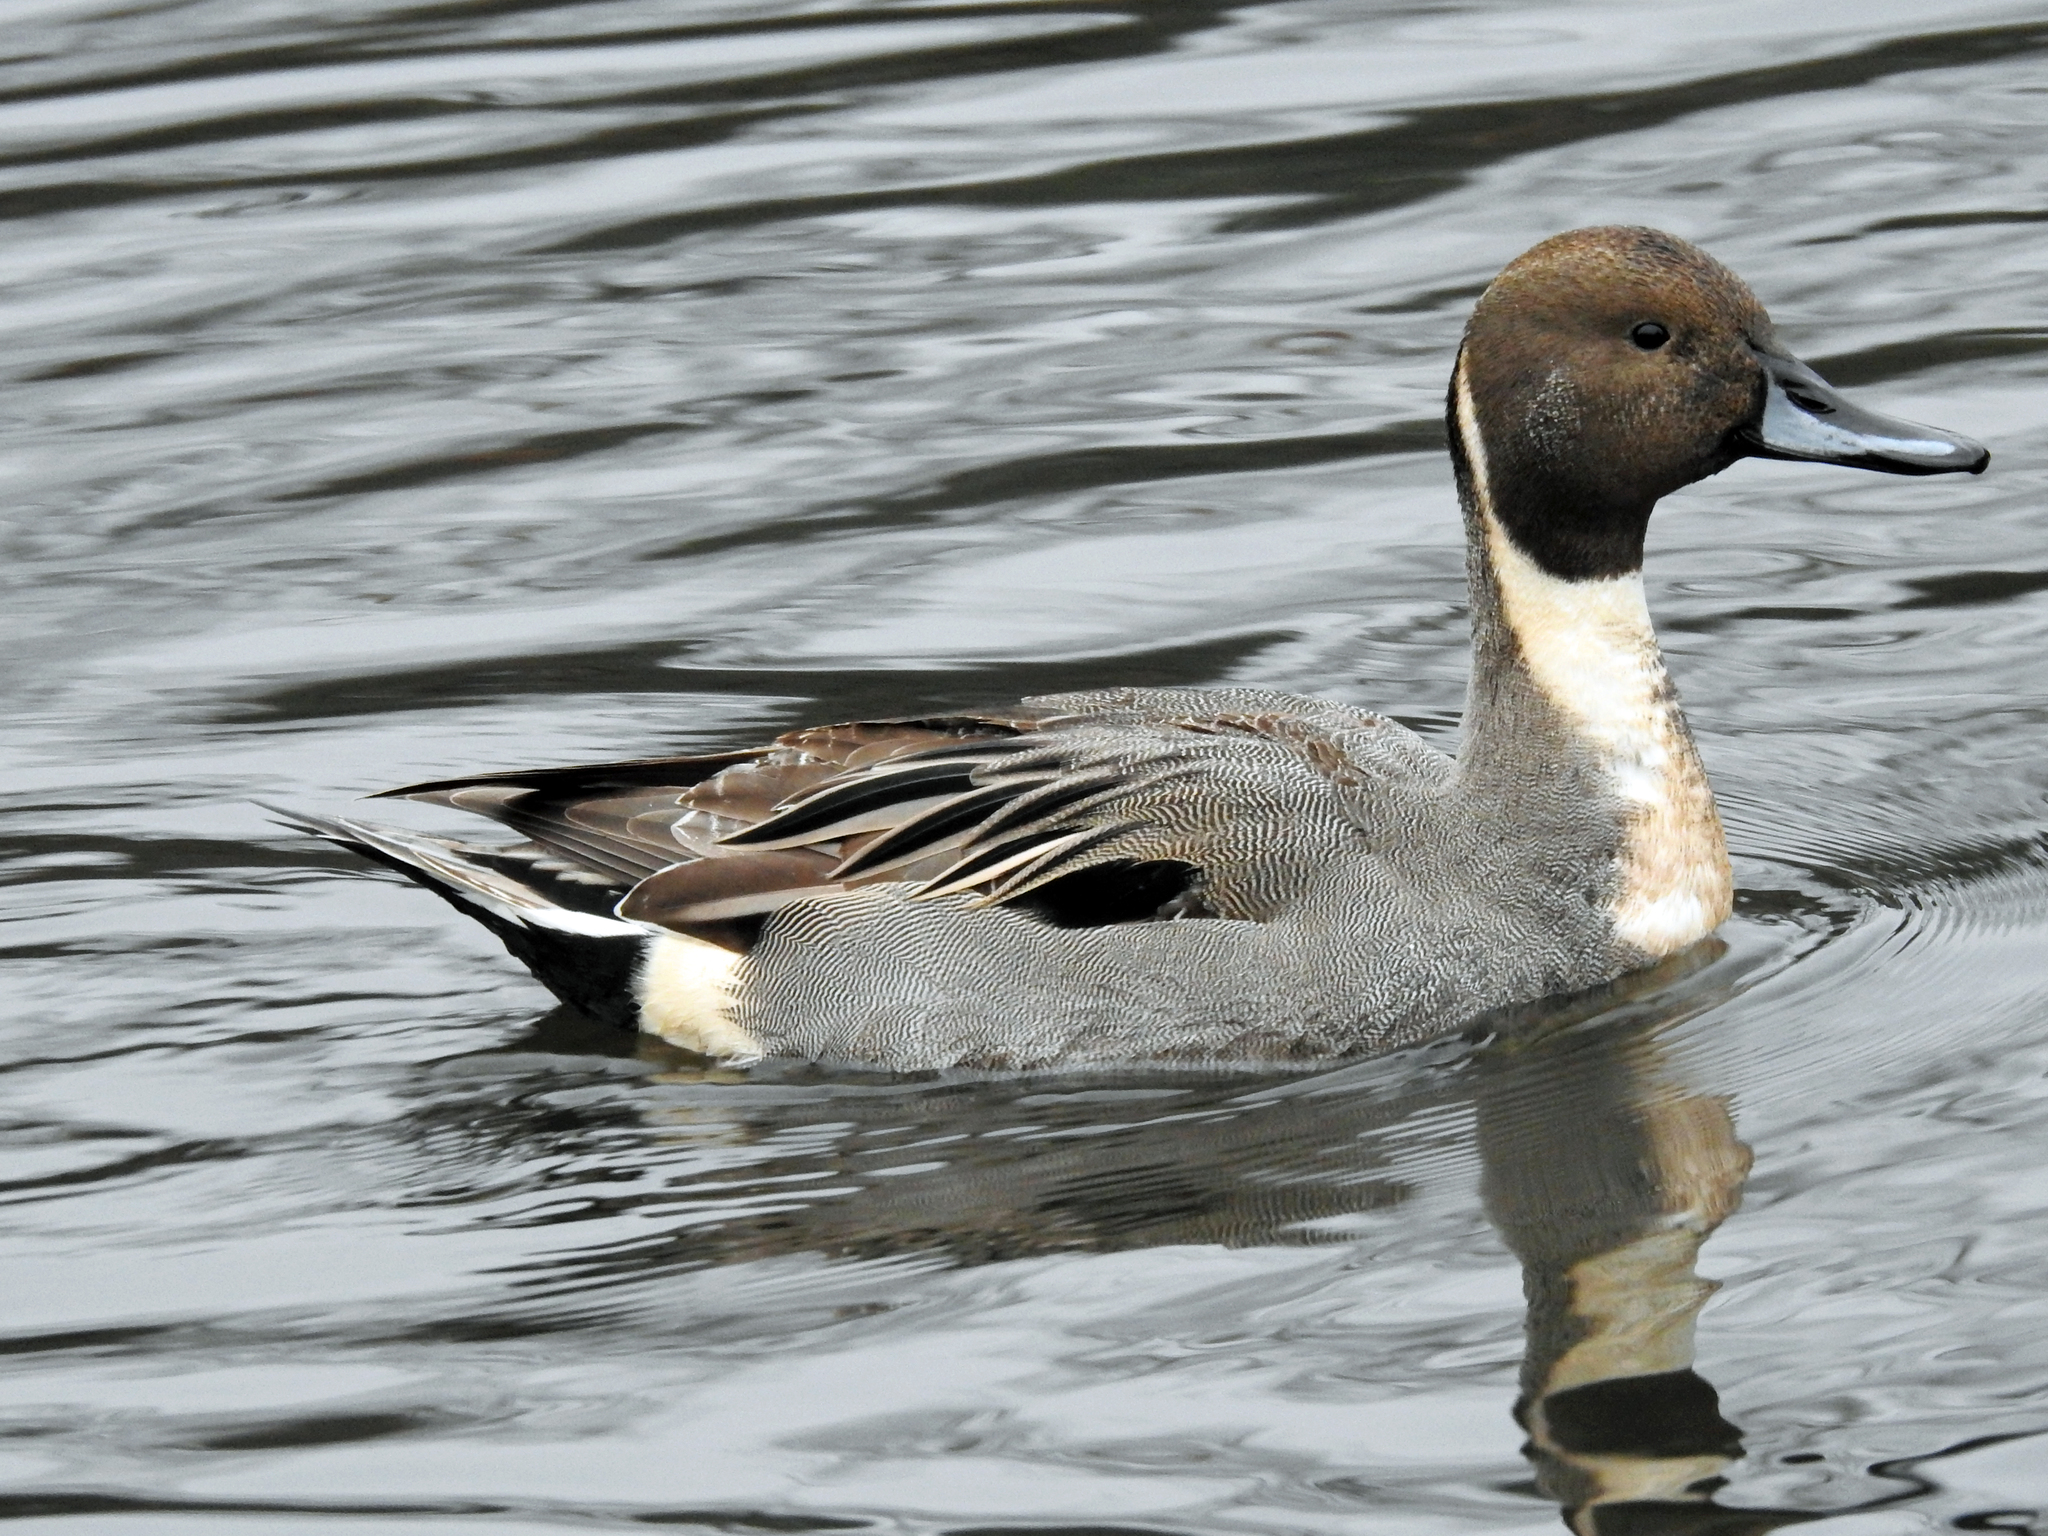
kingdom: Animalia
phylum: Chordata
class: Aves
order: Anseriformes
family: Anatidae
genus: Anas
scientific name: Anas acuta
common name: Northern pintail
